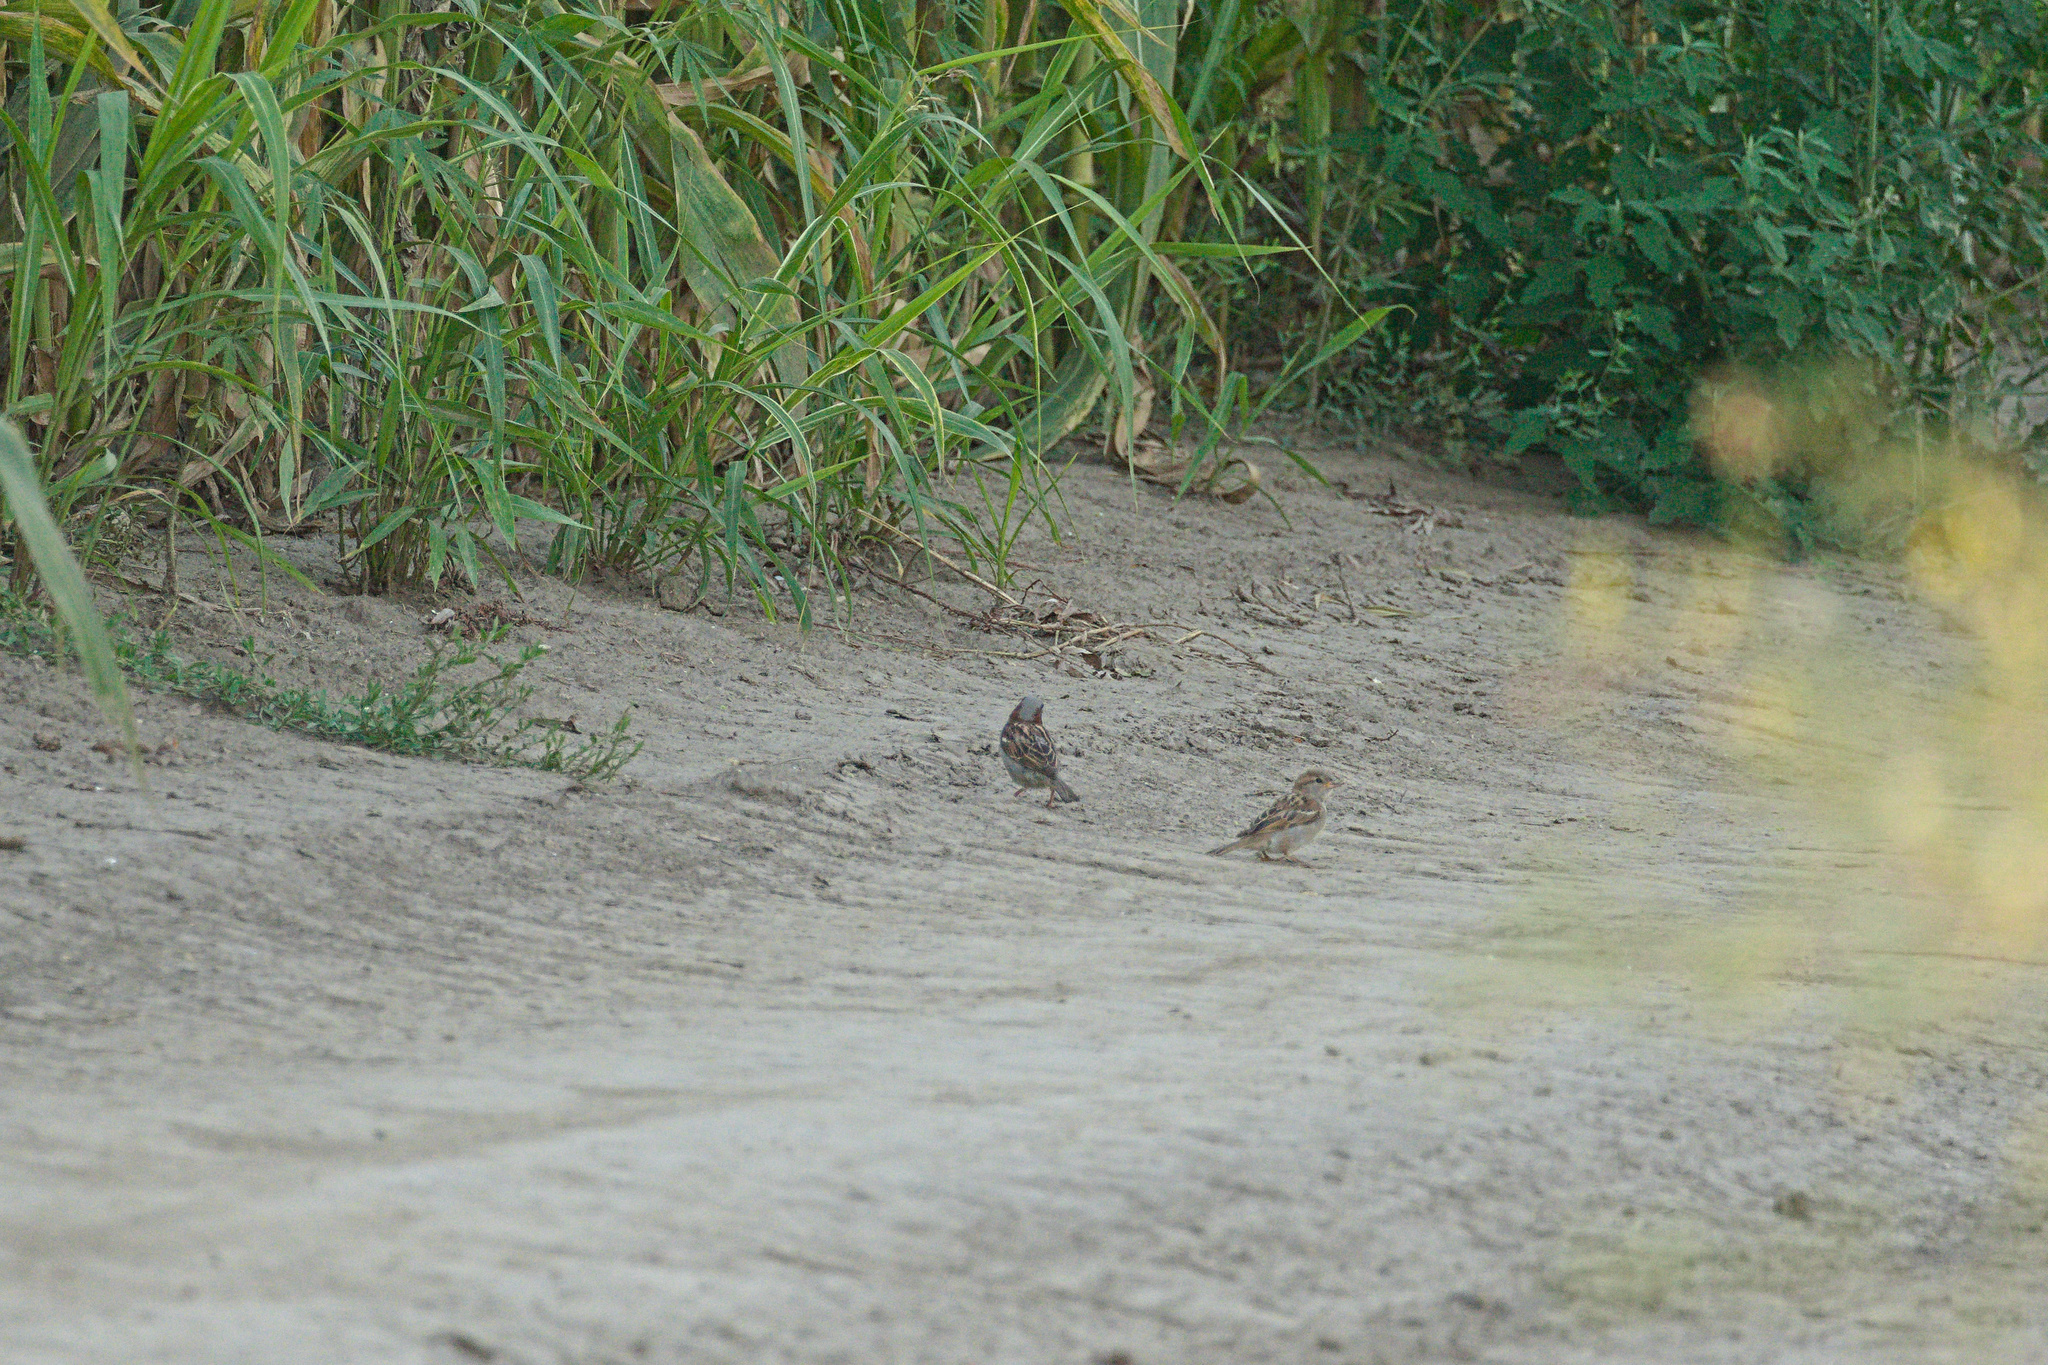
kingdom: Animalia
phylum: Chordata
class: Aves
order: Passeriformes
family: Passeridae
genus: Passer
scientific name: Passer domesticus
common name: House sparrow
